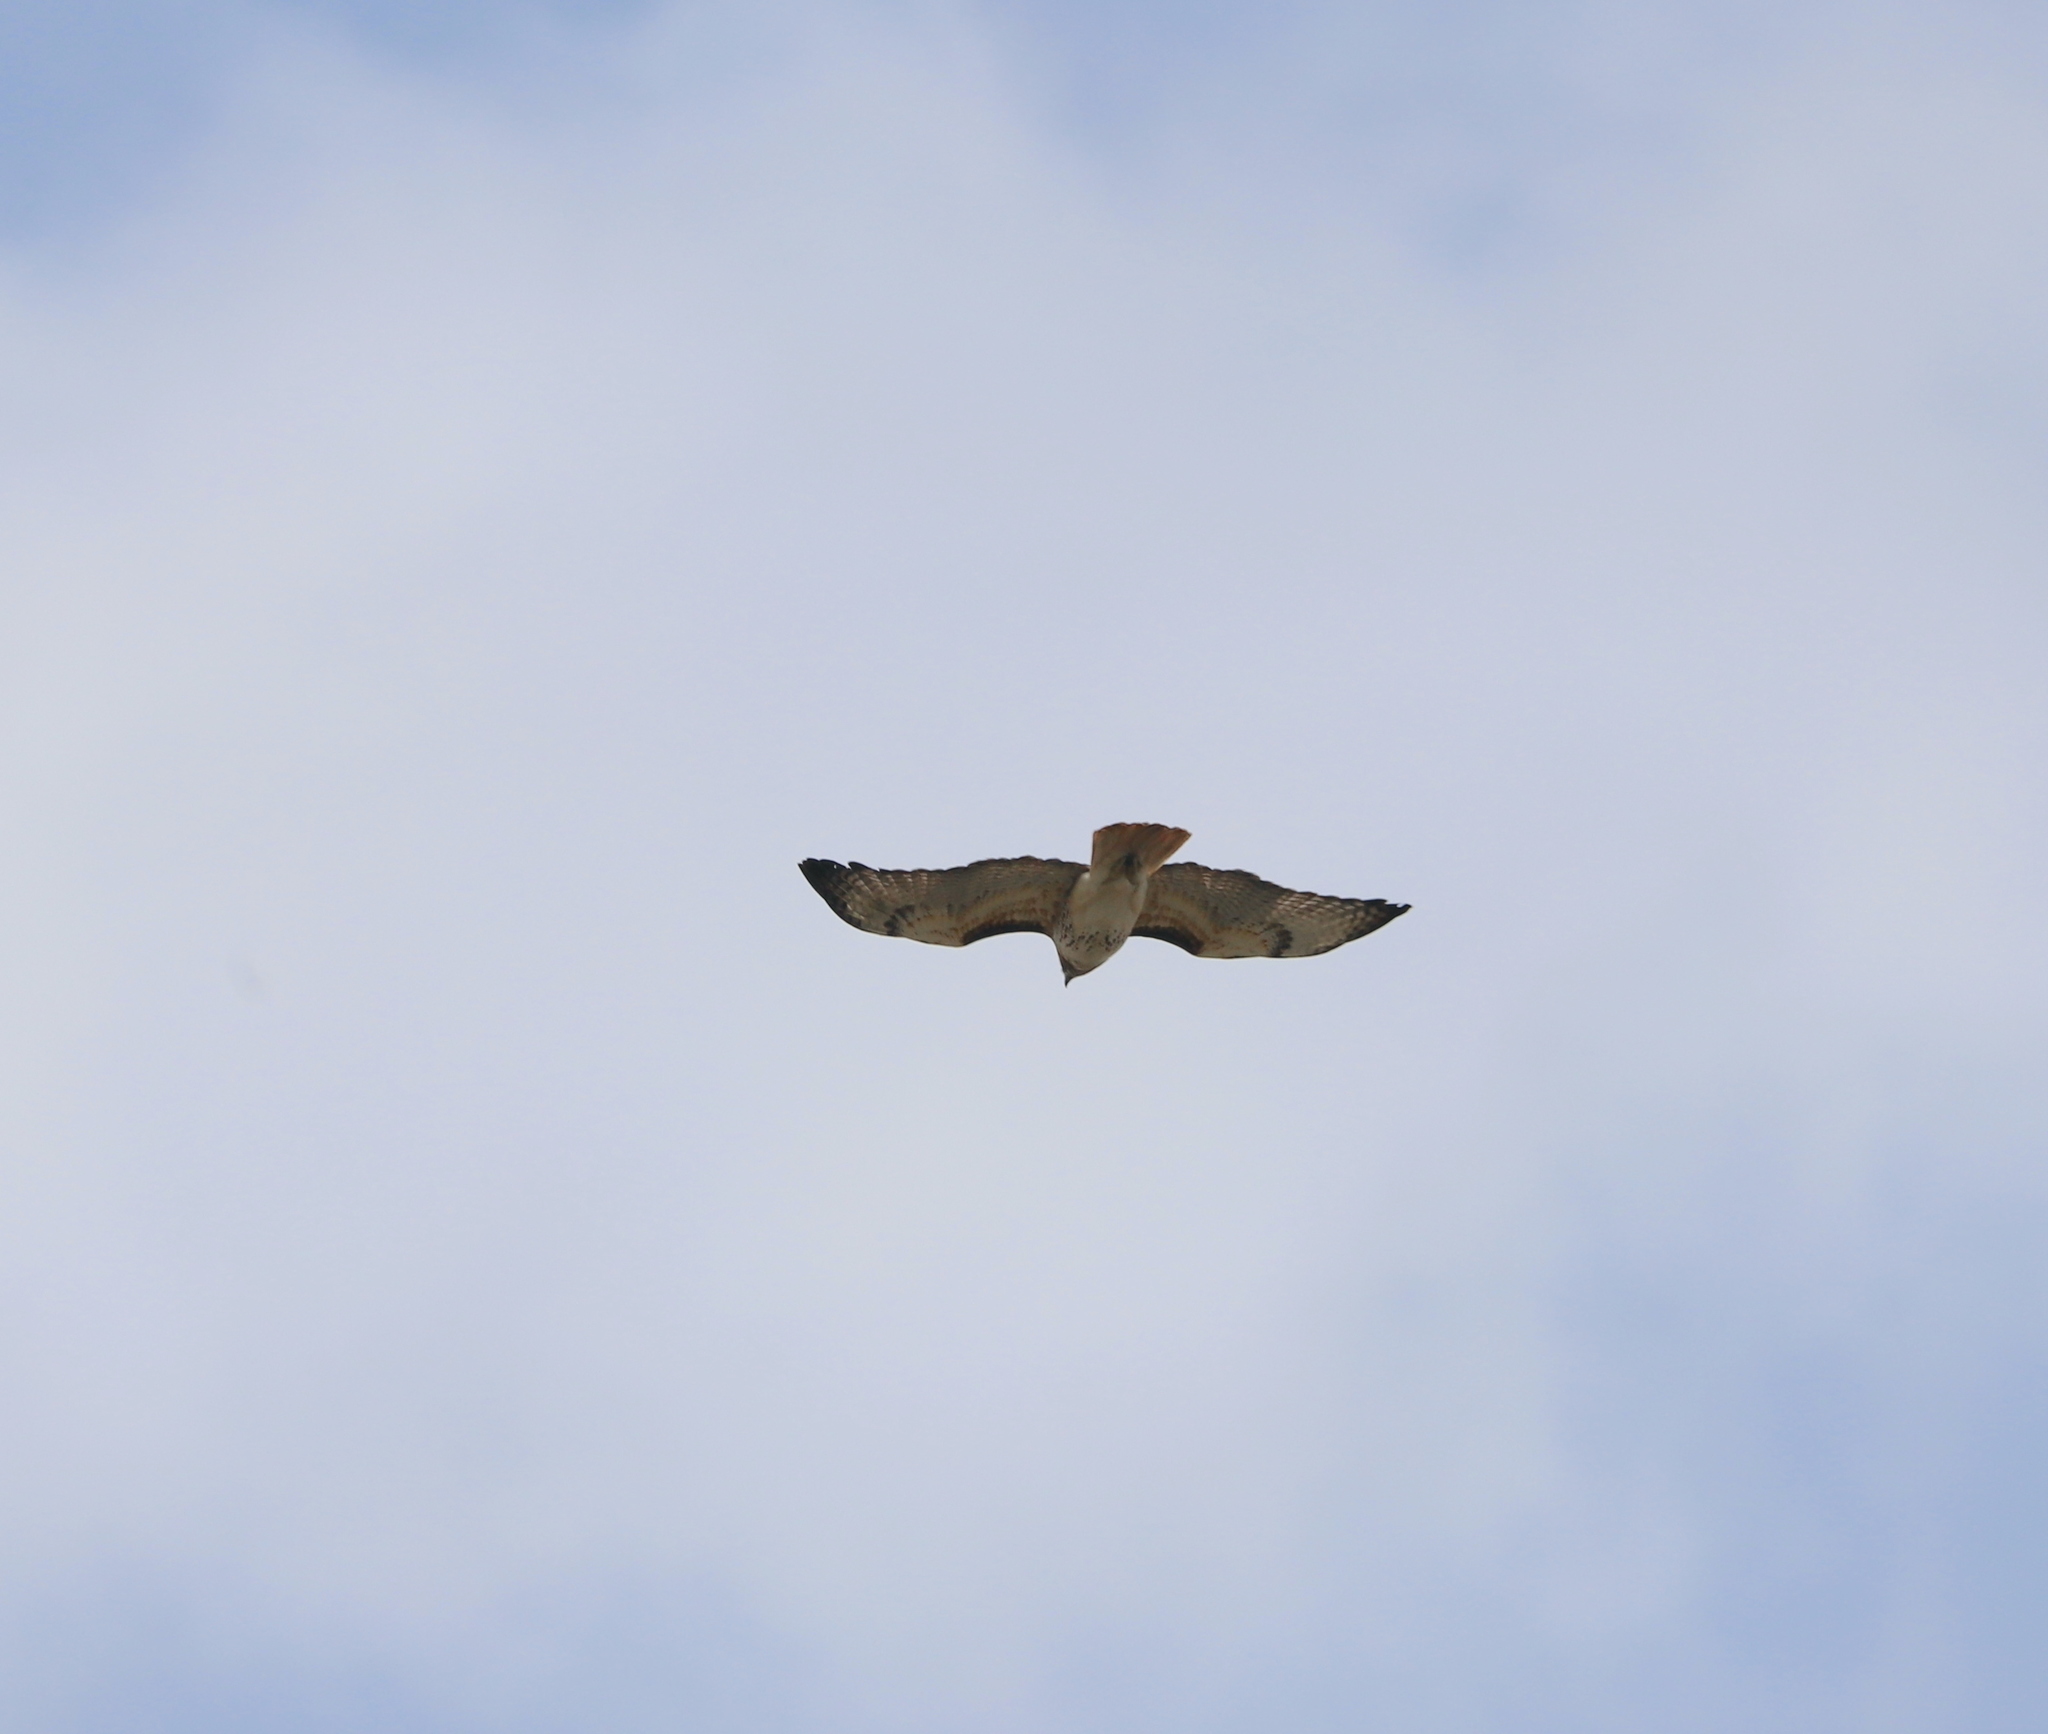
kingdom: Animalia
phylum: Chordata
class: Aves
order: Accipitriformes
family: Accipitridae
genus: Buteo
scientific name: Buteo jamaicensis
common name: Red-tailed hawk
